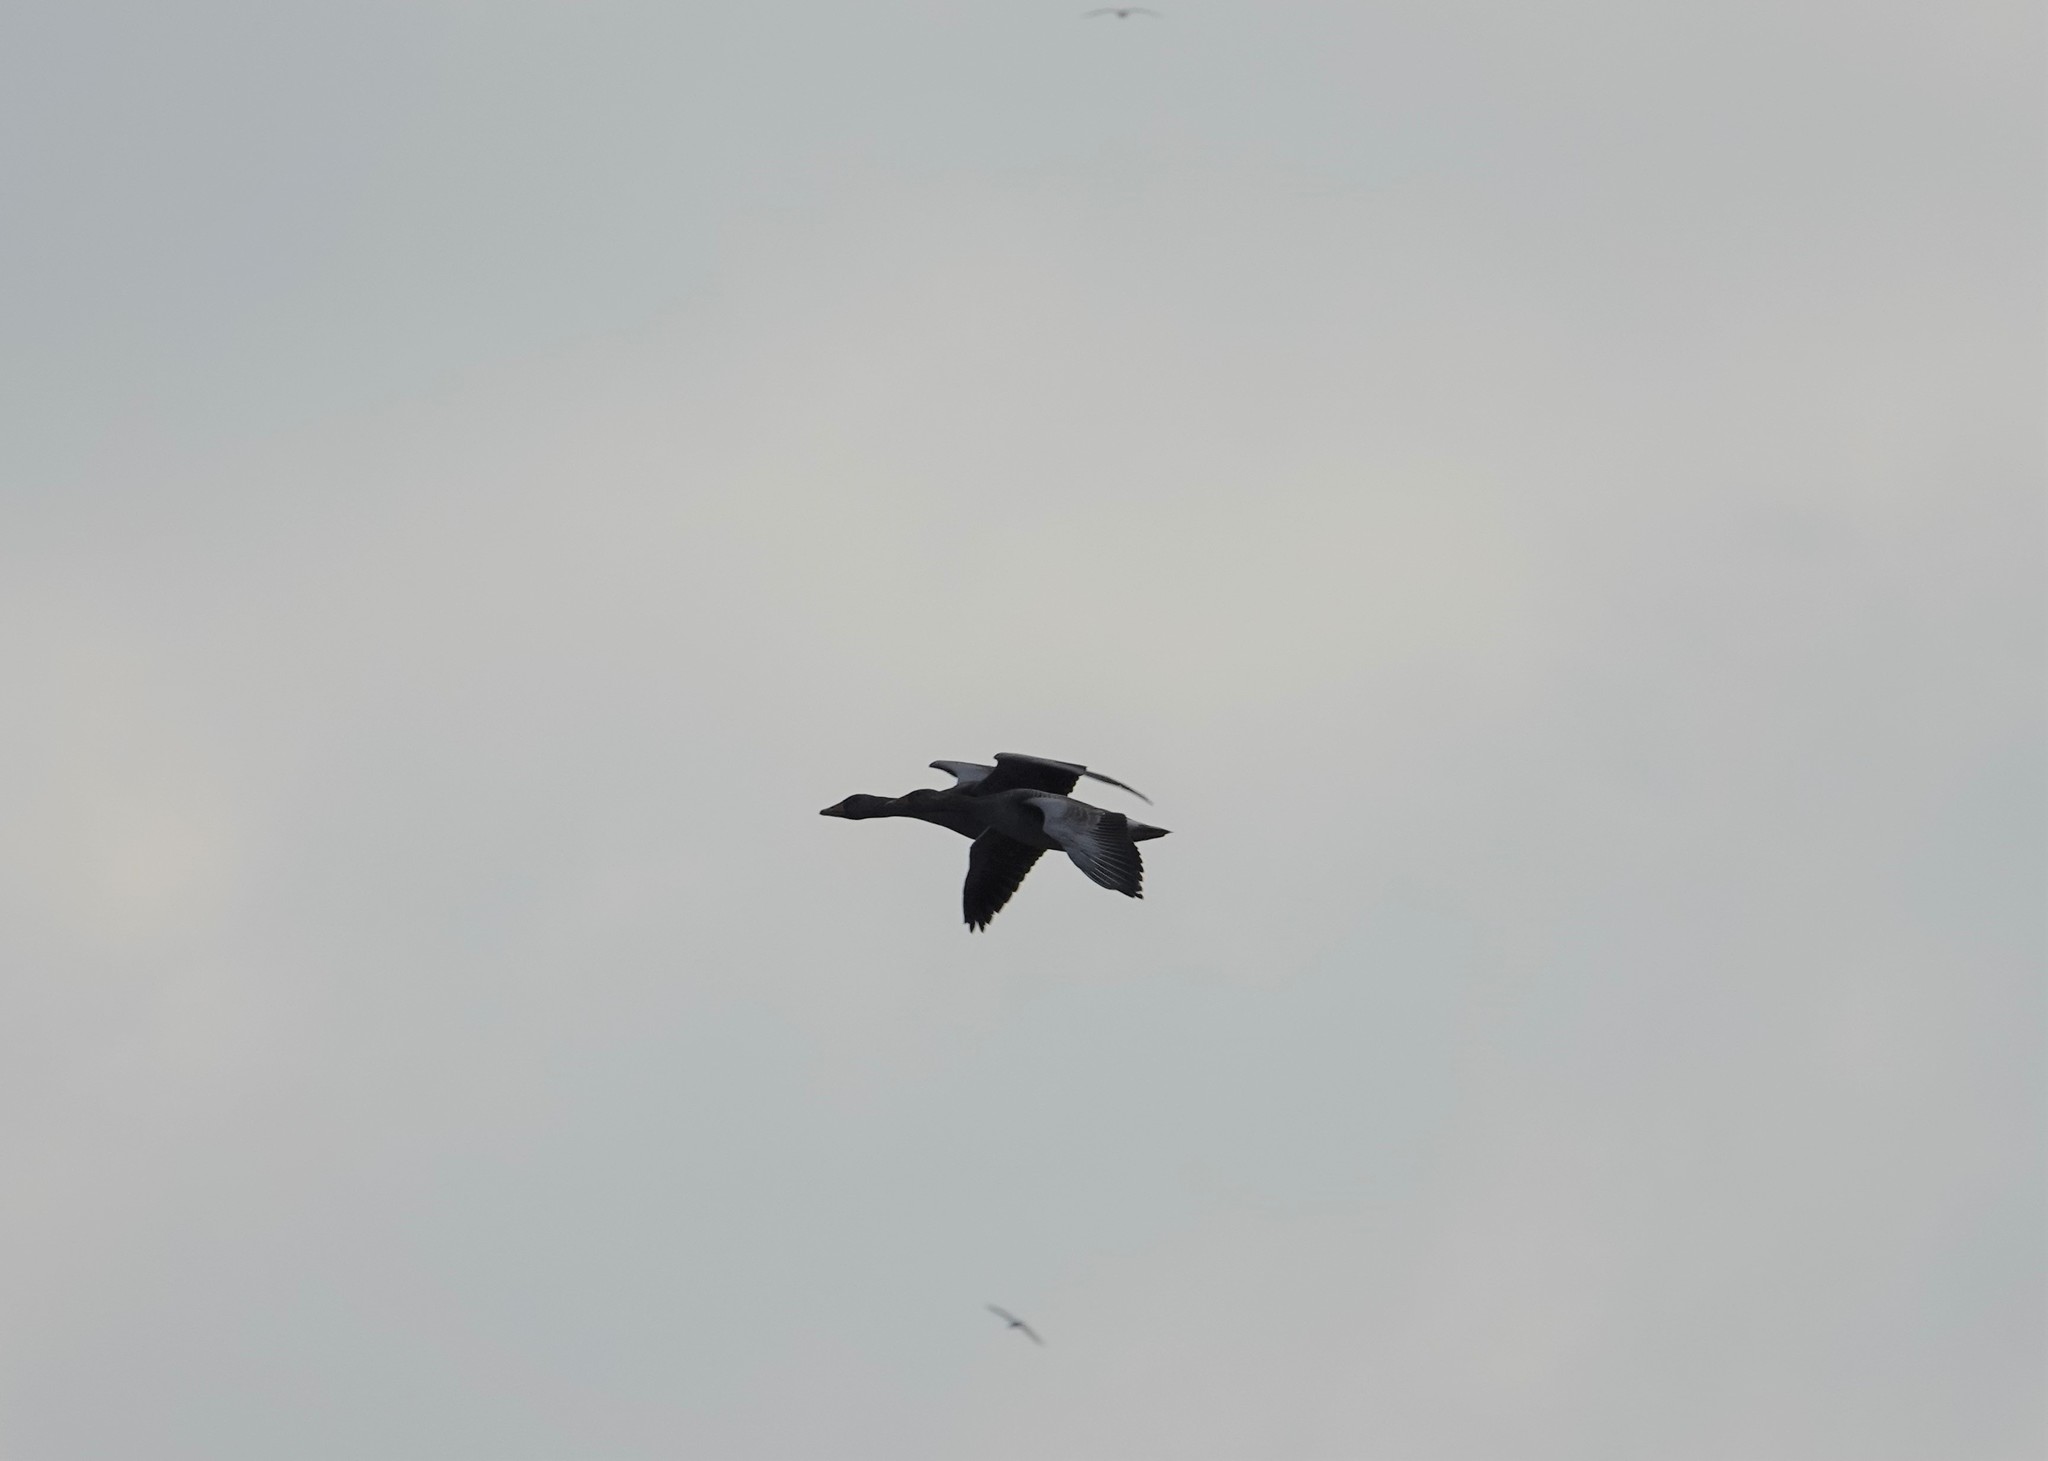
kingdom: Animalia
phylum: Chordata
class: Aves
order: Anseriformes
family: Anatidae
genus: Anser
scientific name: Anser anser
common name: Greylag goose
